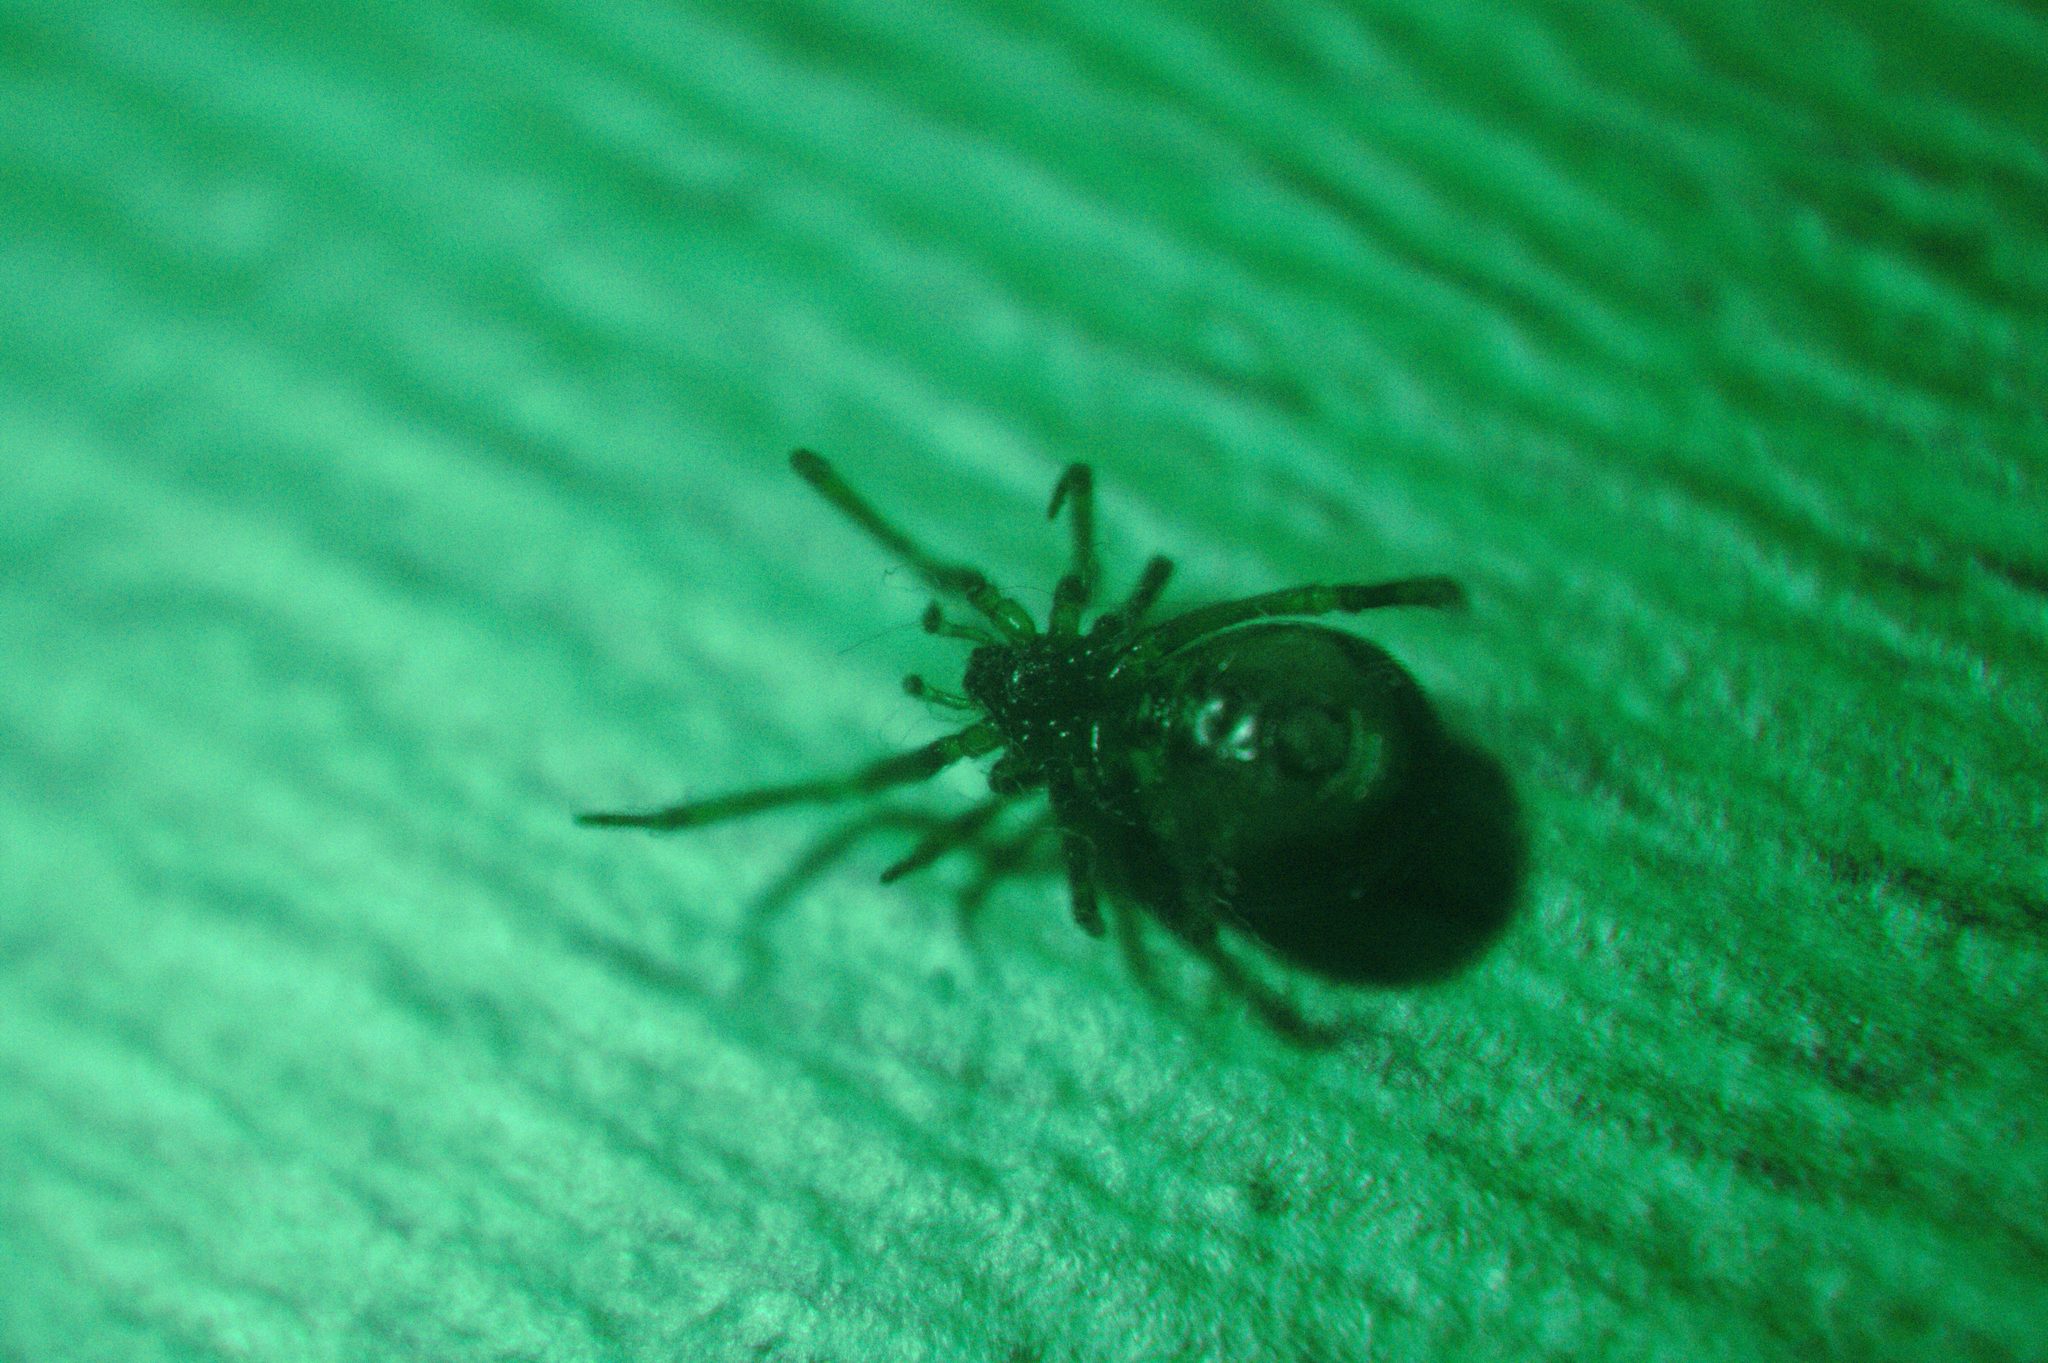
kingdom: Animalia
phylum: Arthropoda
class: Arachnida
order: Araneae
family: Theridiidae
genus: Steatoda
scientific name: Steatoda borealis
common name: Boreal combfoot
